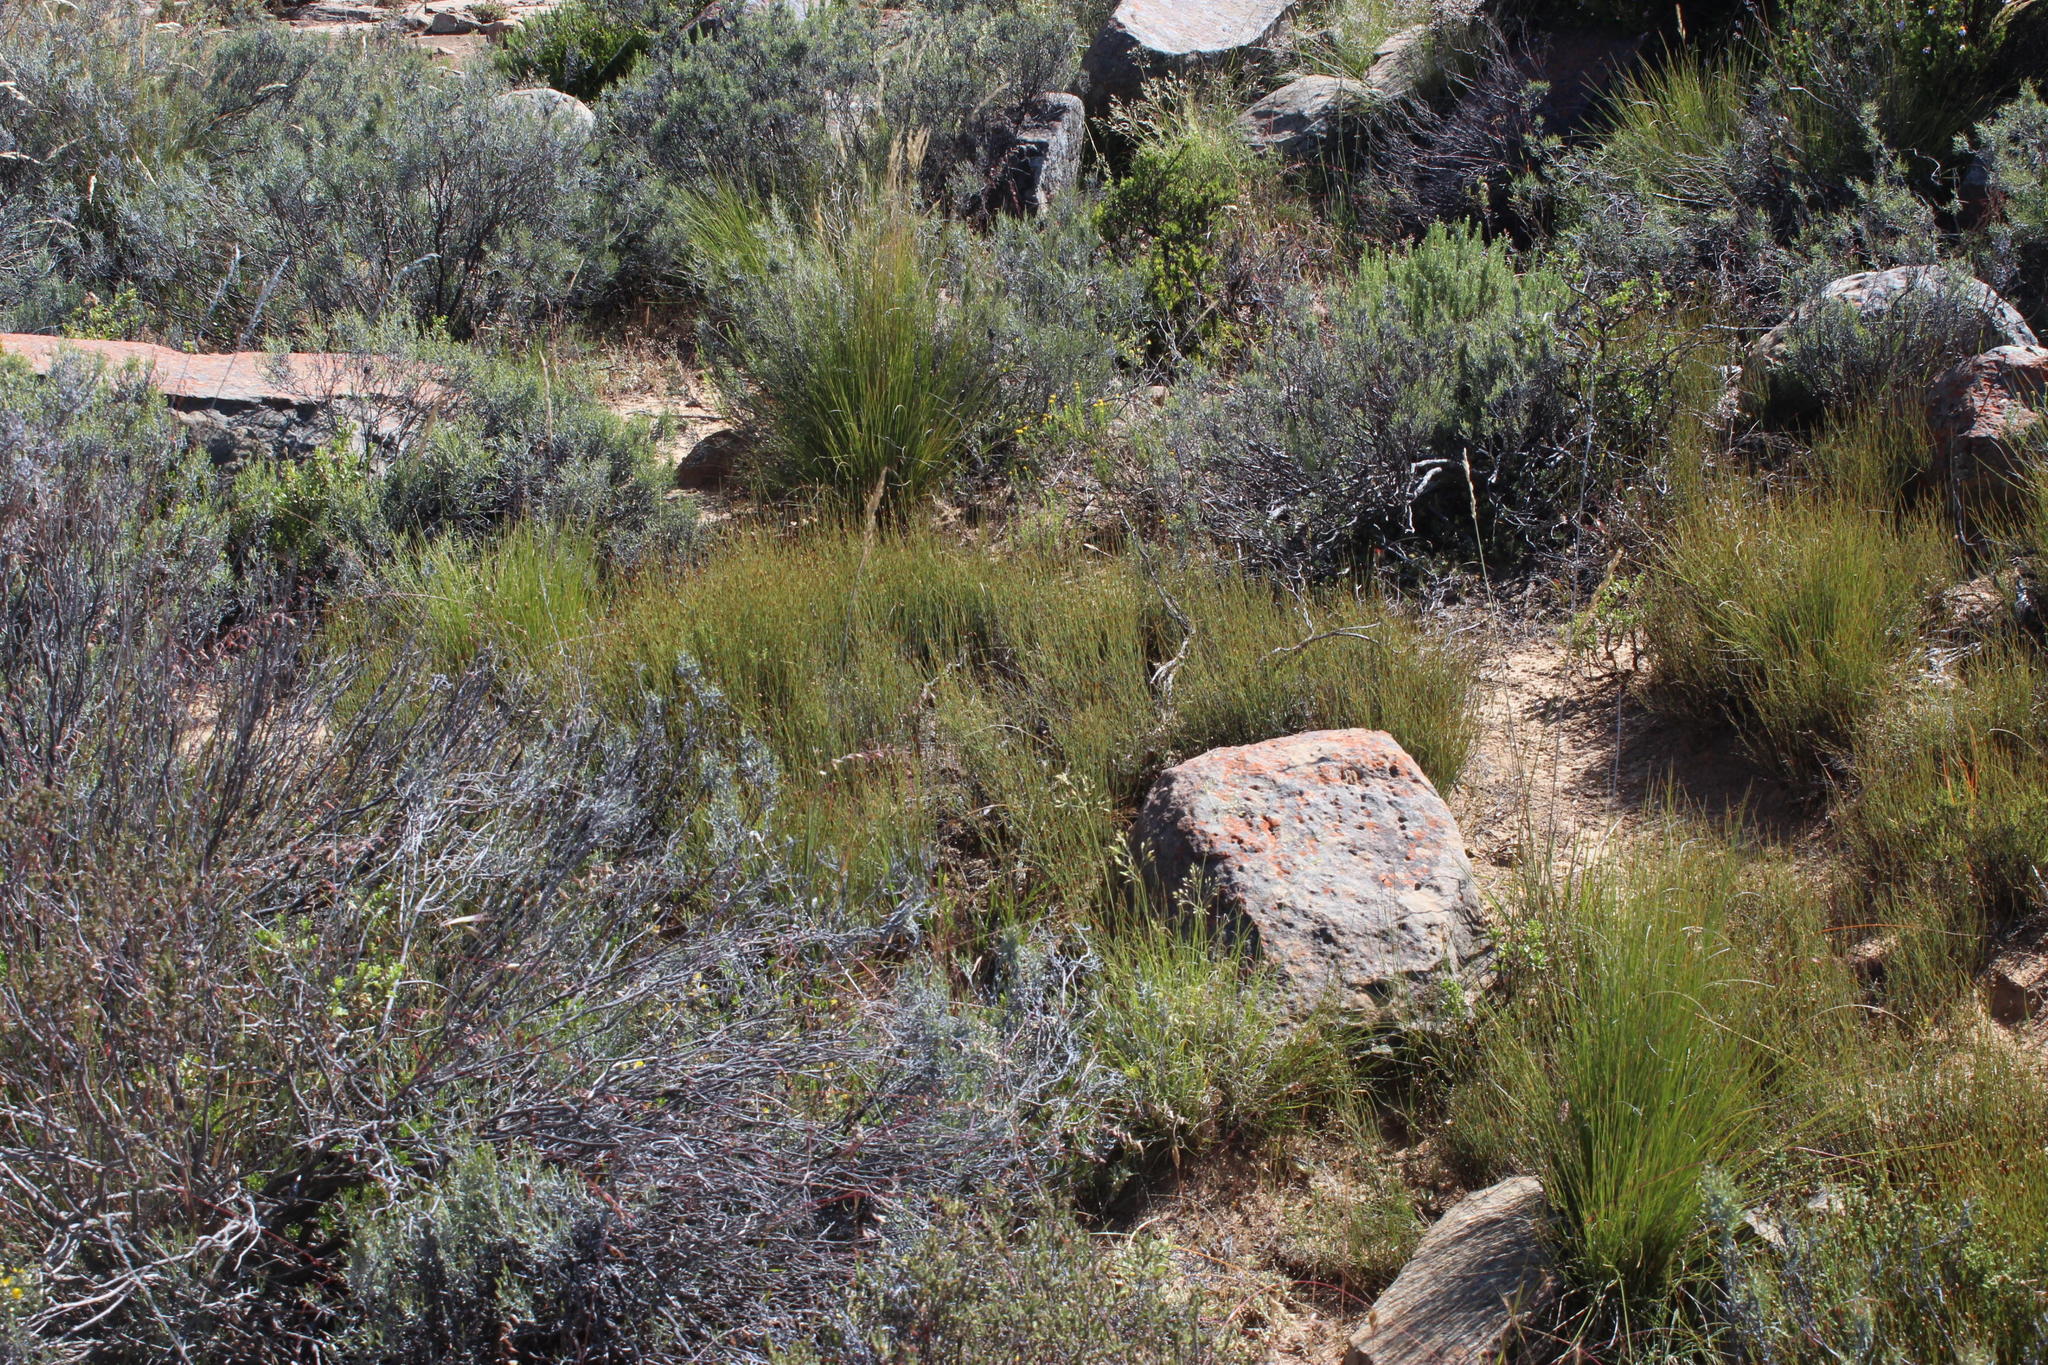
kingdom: Plantae
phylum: Tracheophyta
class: Liliopsida
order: Poales
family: Restionaceae
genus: Restio
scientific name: Restio unispicatus
